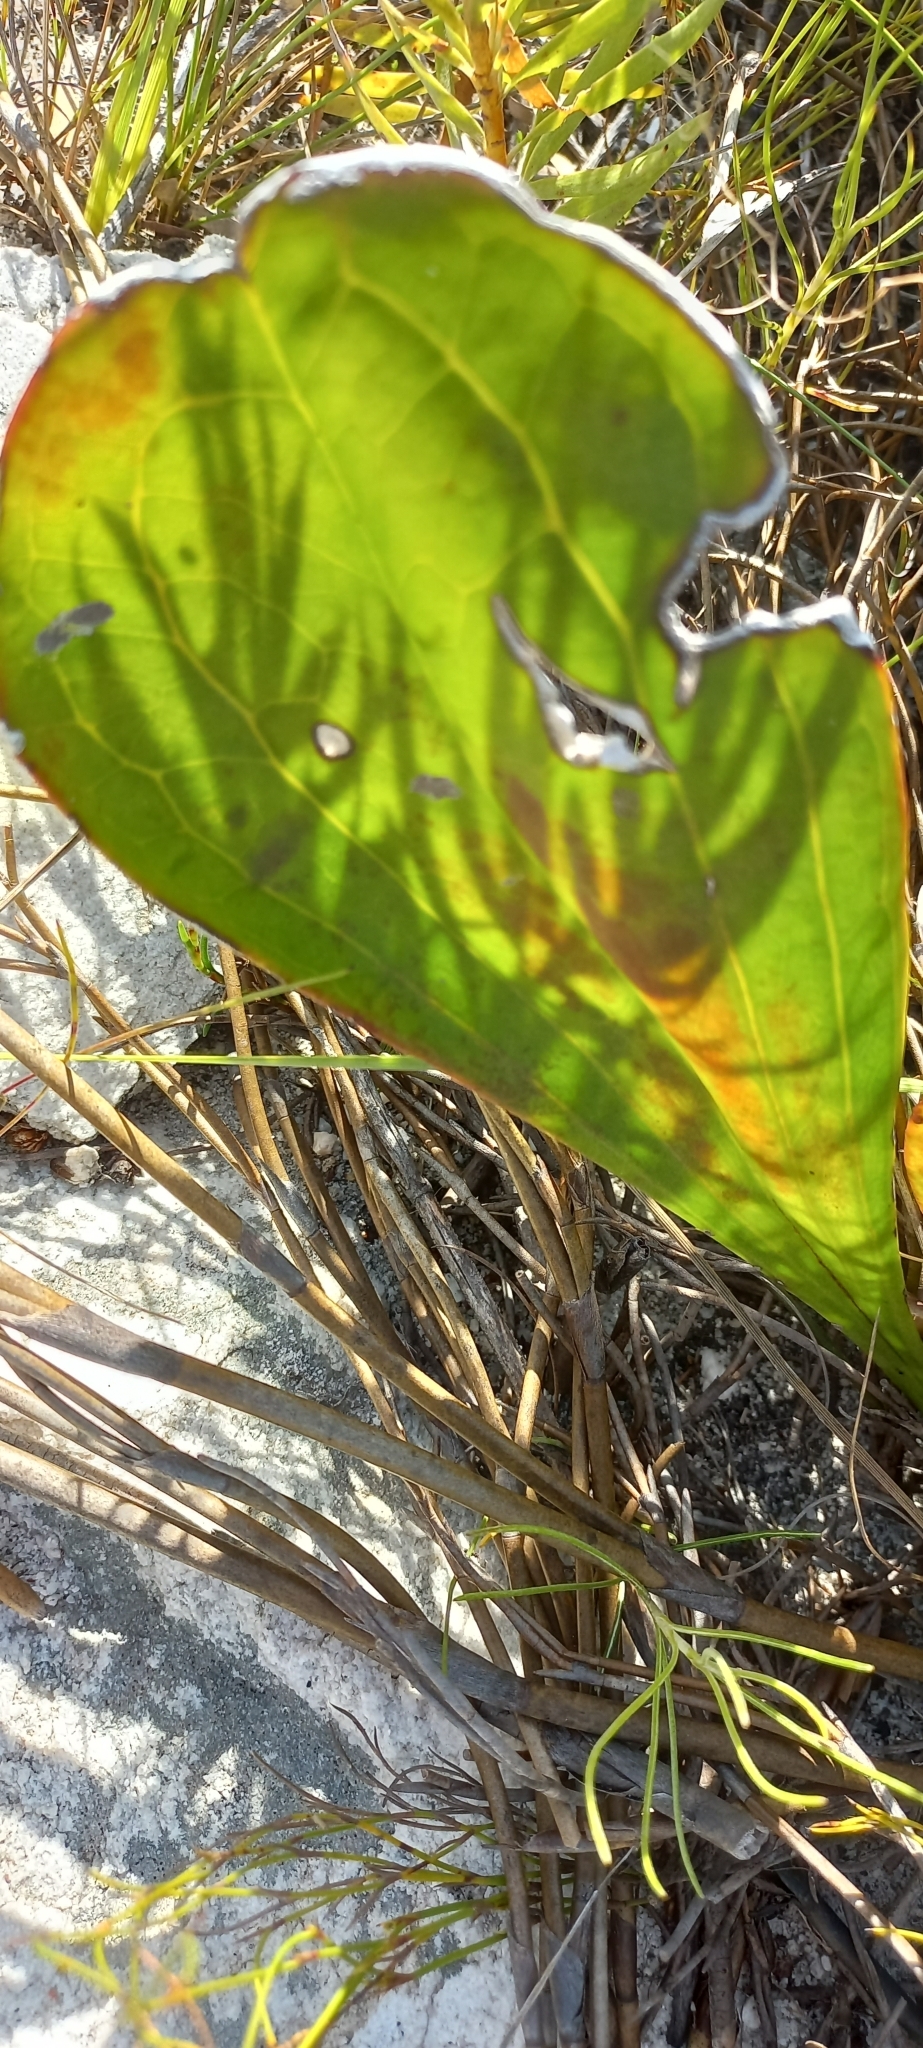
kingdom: Plantae
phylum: Tracheophyta
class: Magnoliopsida
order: Asterales
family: Asteraceae
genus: Mairia
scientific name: Mairia coriacea
